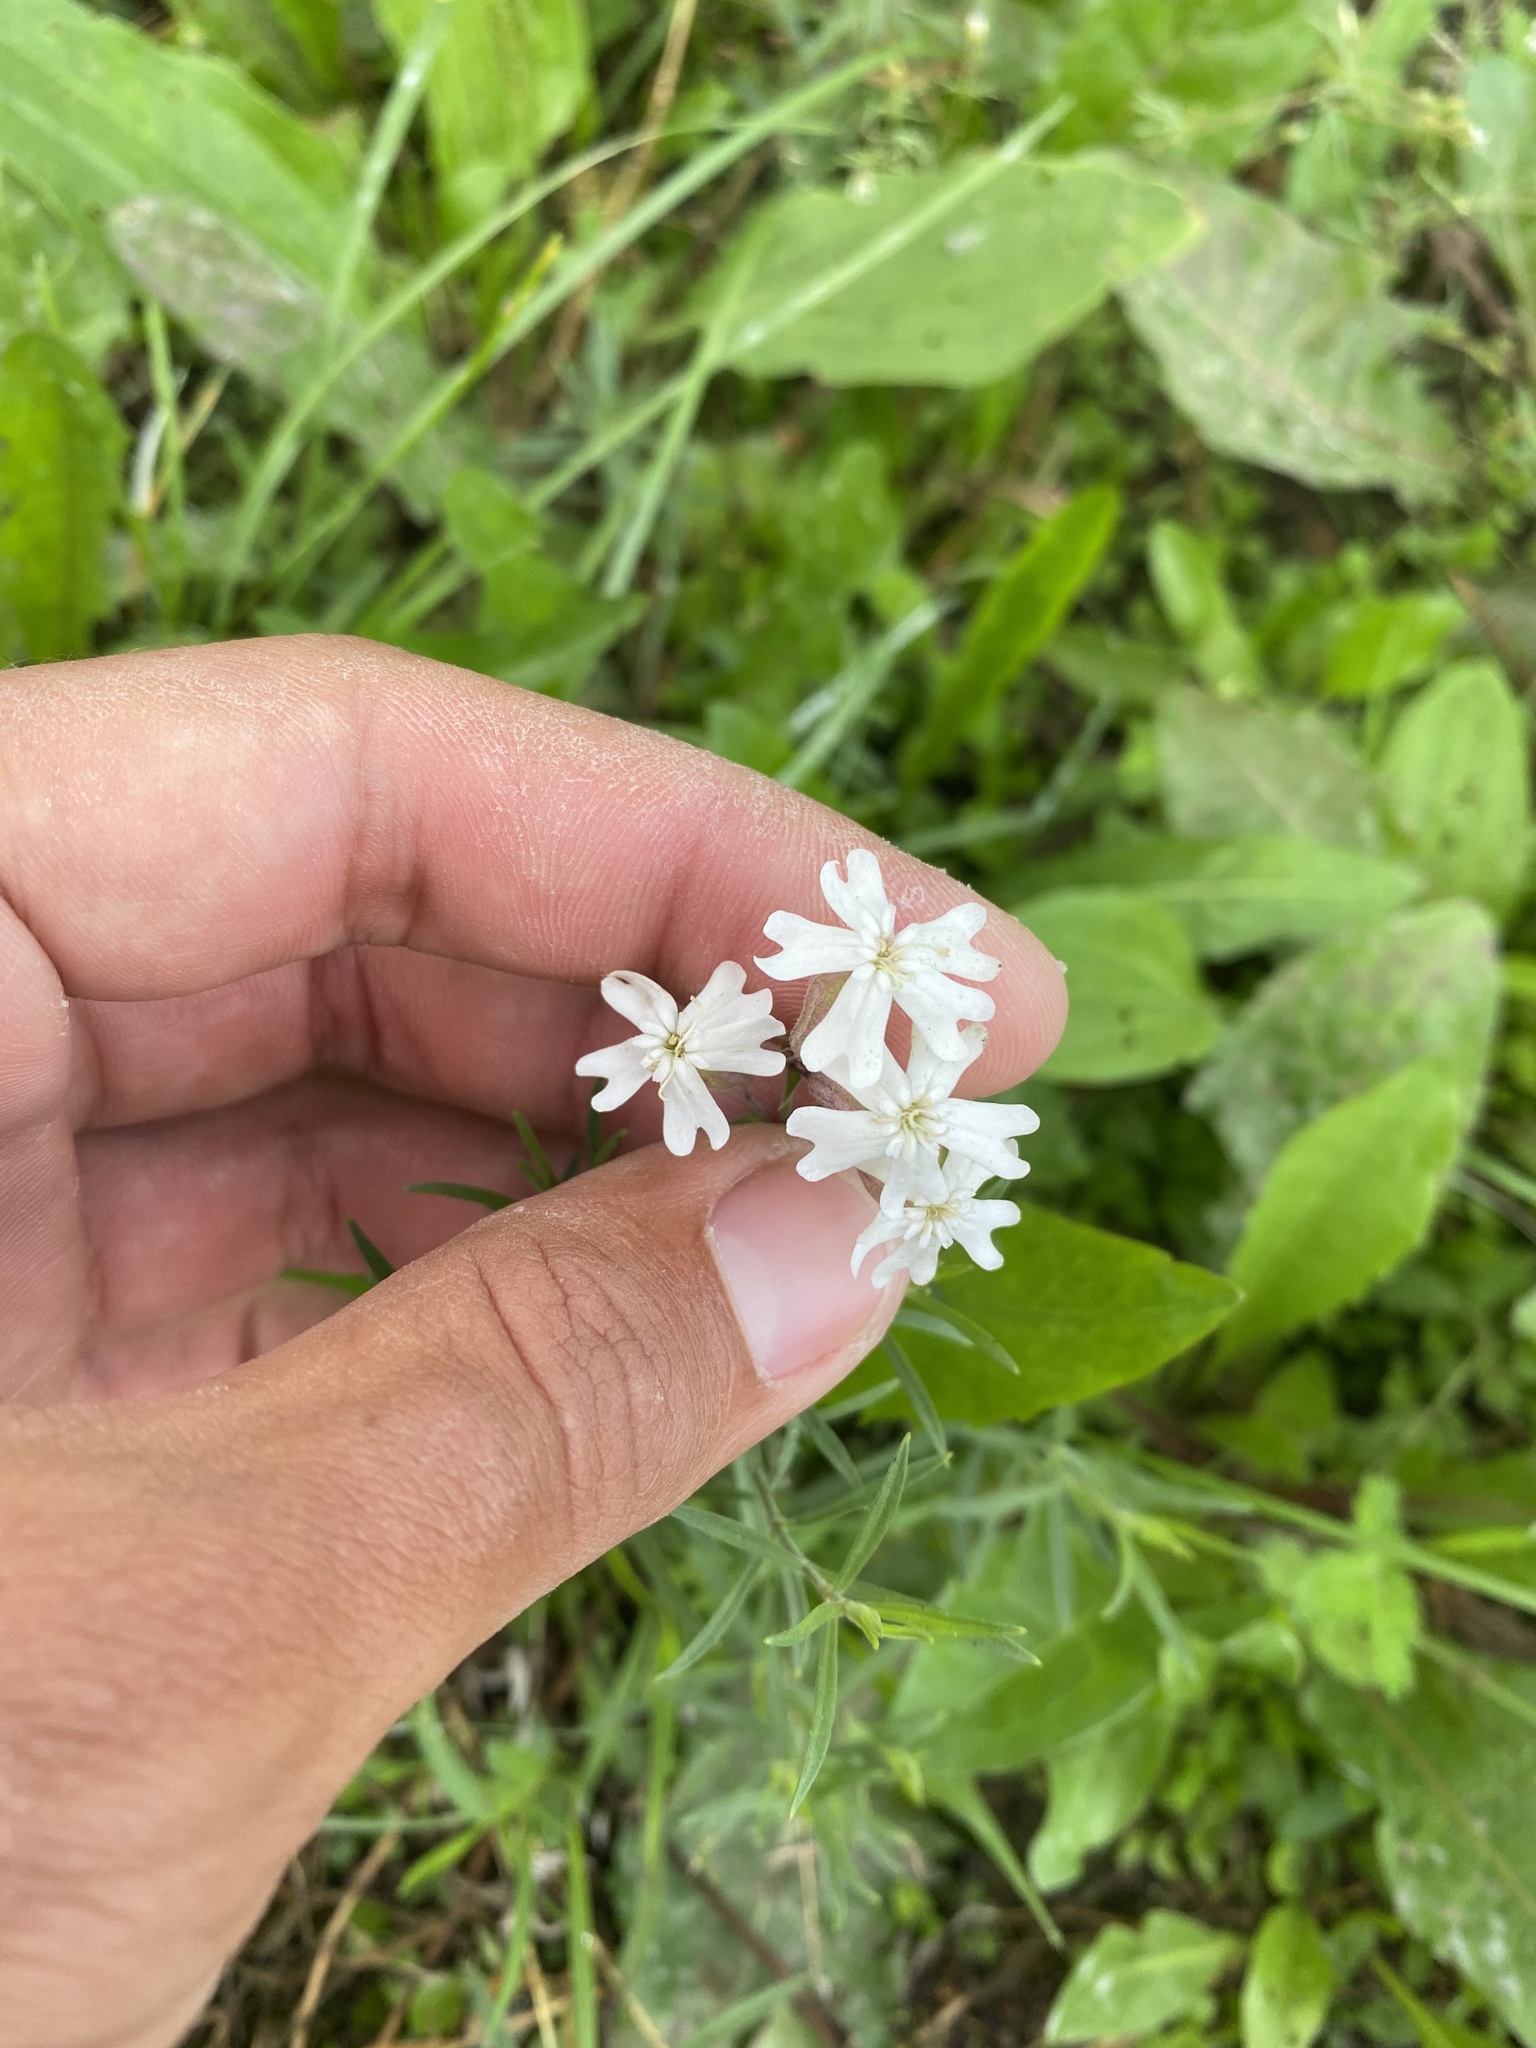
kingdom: Plantae
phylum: Tracheophyta
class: Magnoliopsida
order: Caryophyllales
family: Caryophyllaceae
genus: Silene
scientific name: Silene amoena
